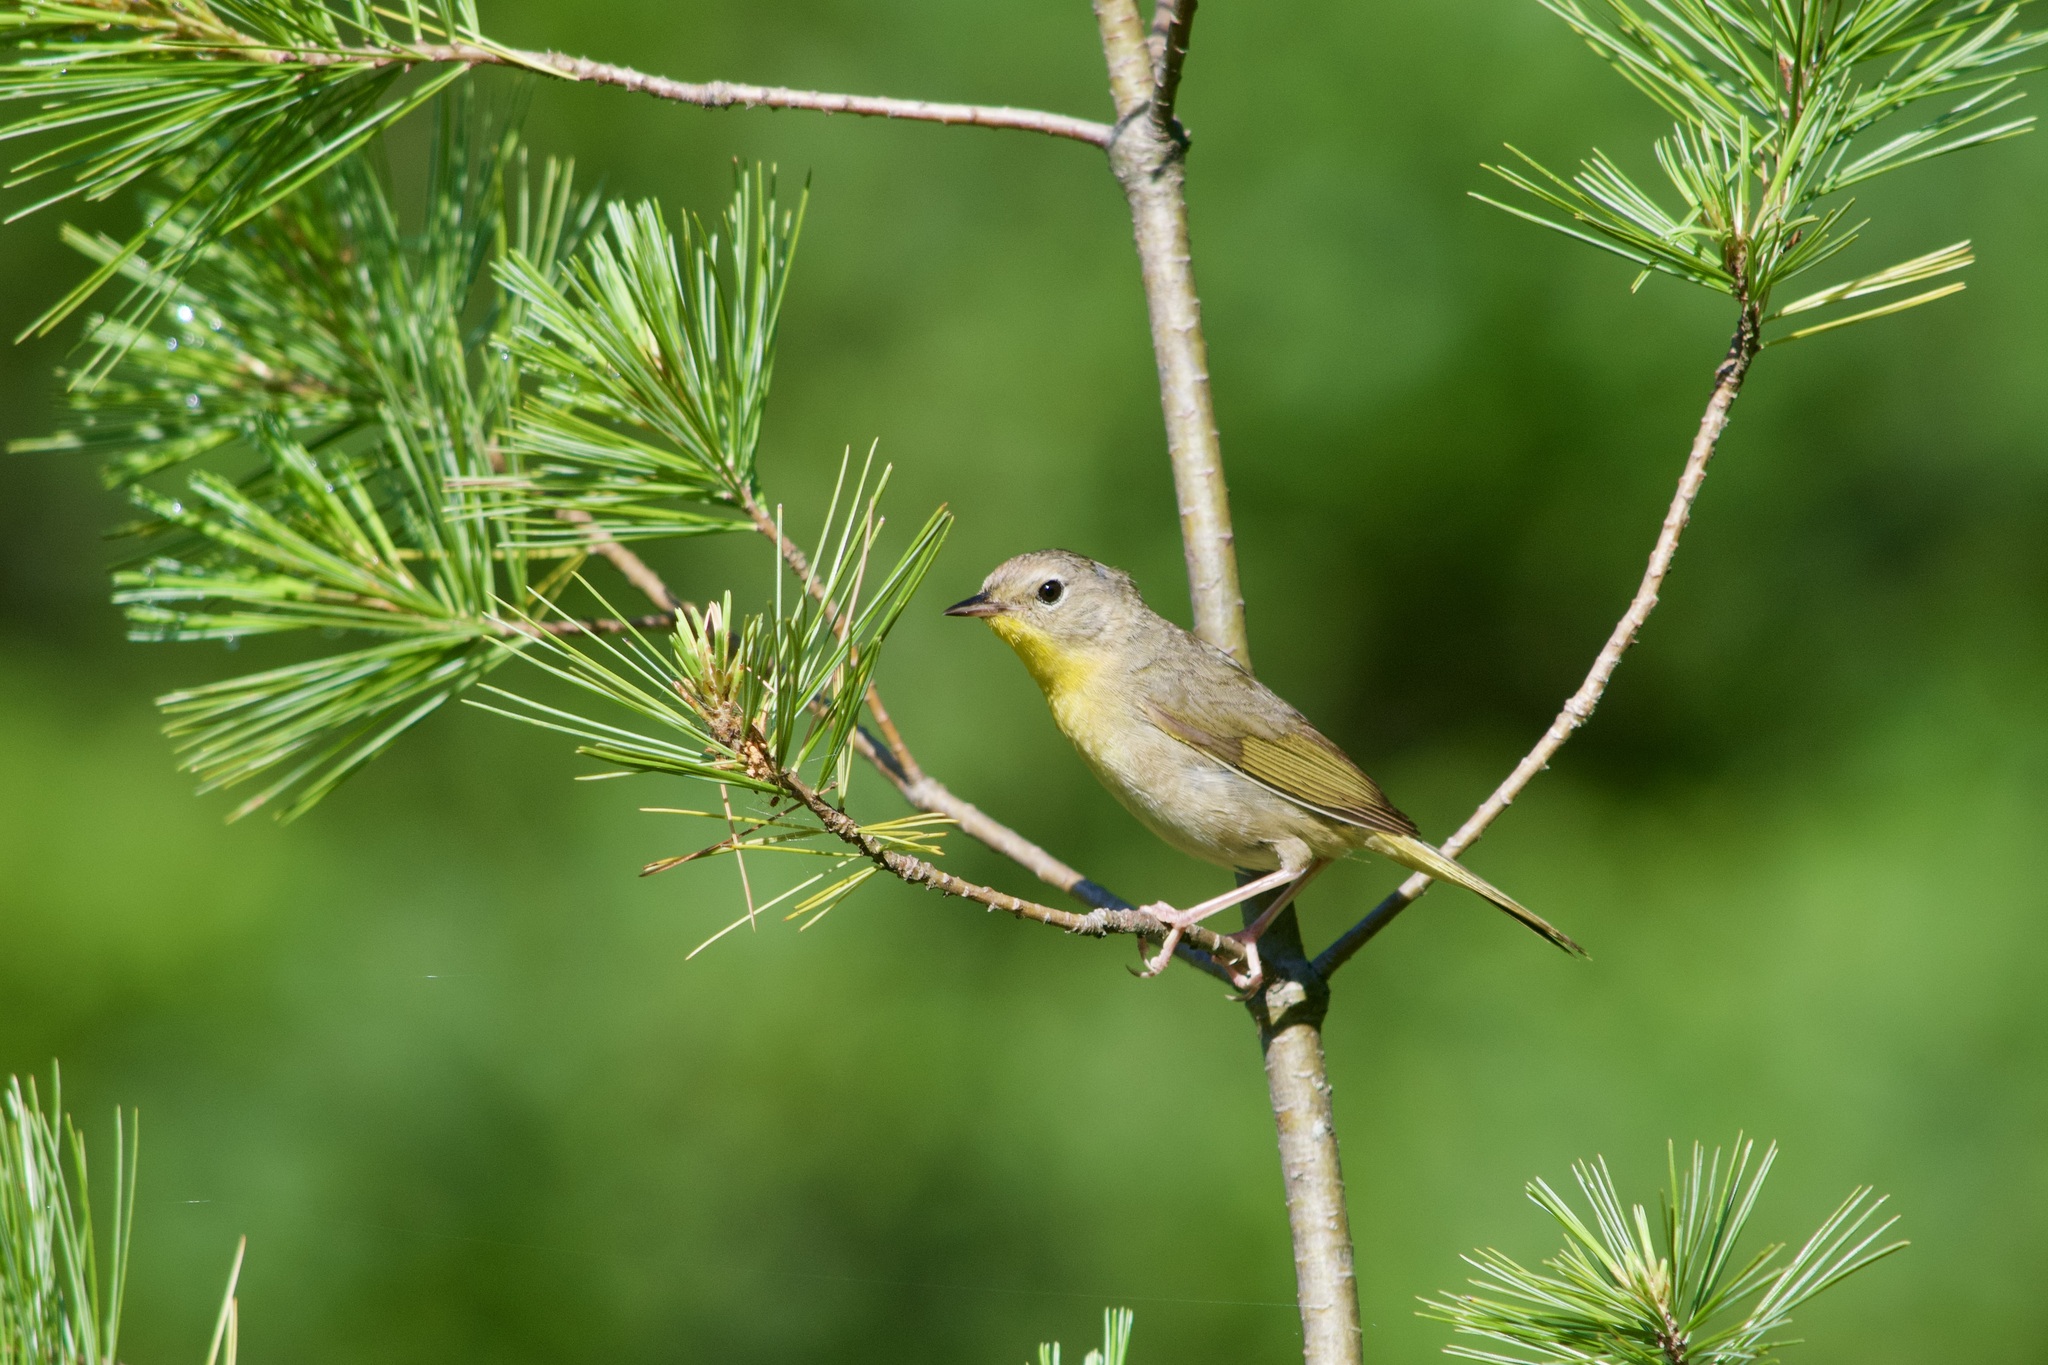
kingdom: Animalia
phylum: Chordata
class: Aves
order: Passeriformes
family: Parulidae
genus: Geothlypis
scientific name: Geothlypis trichas
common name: Common yellowthroat
